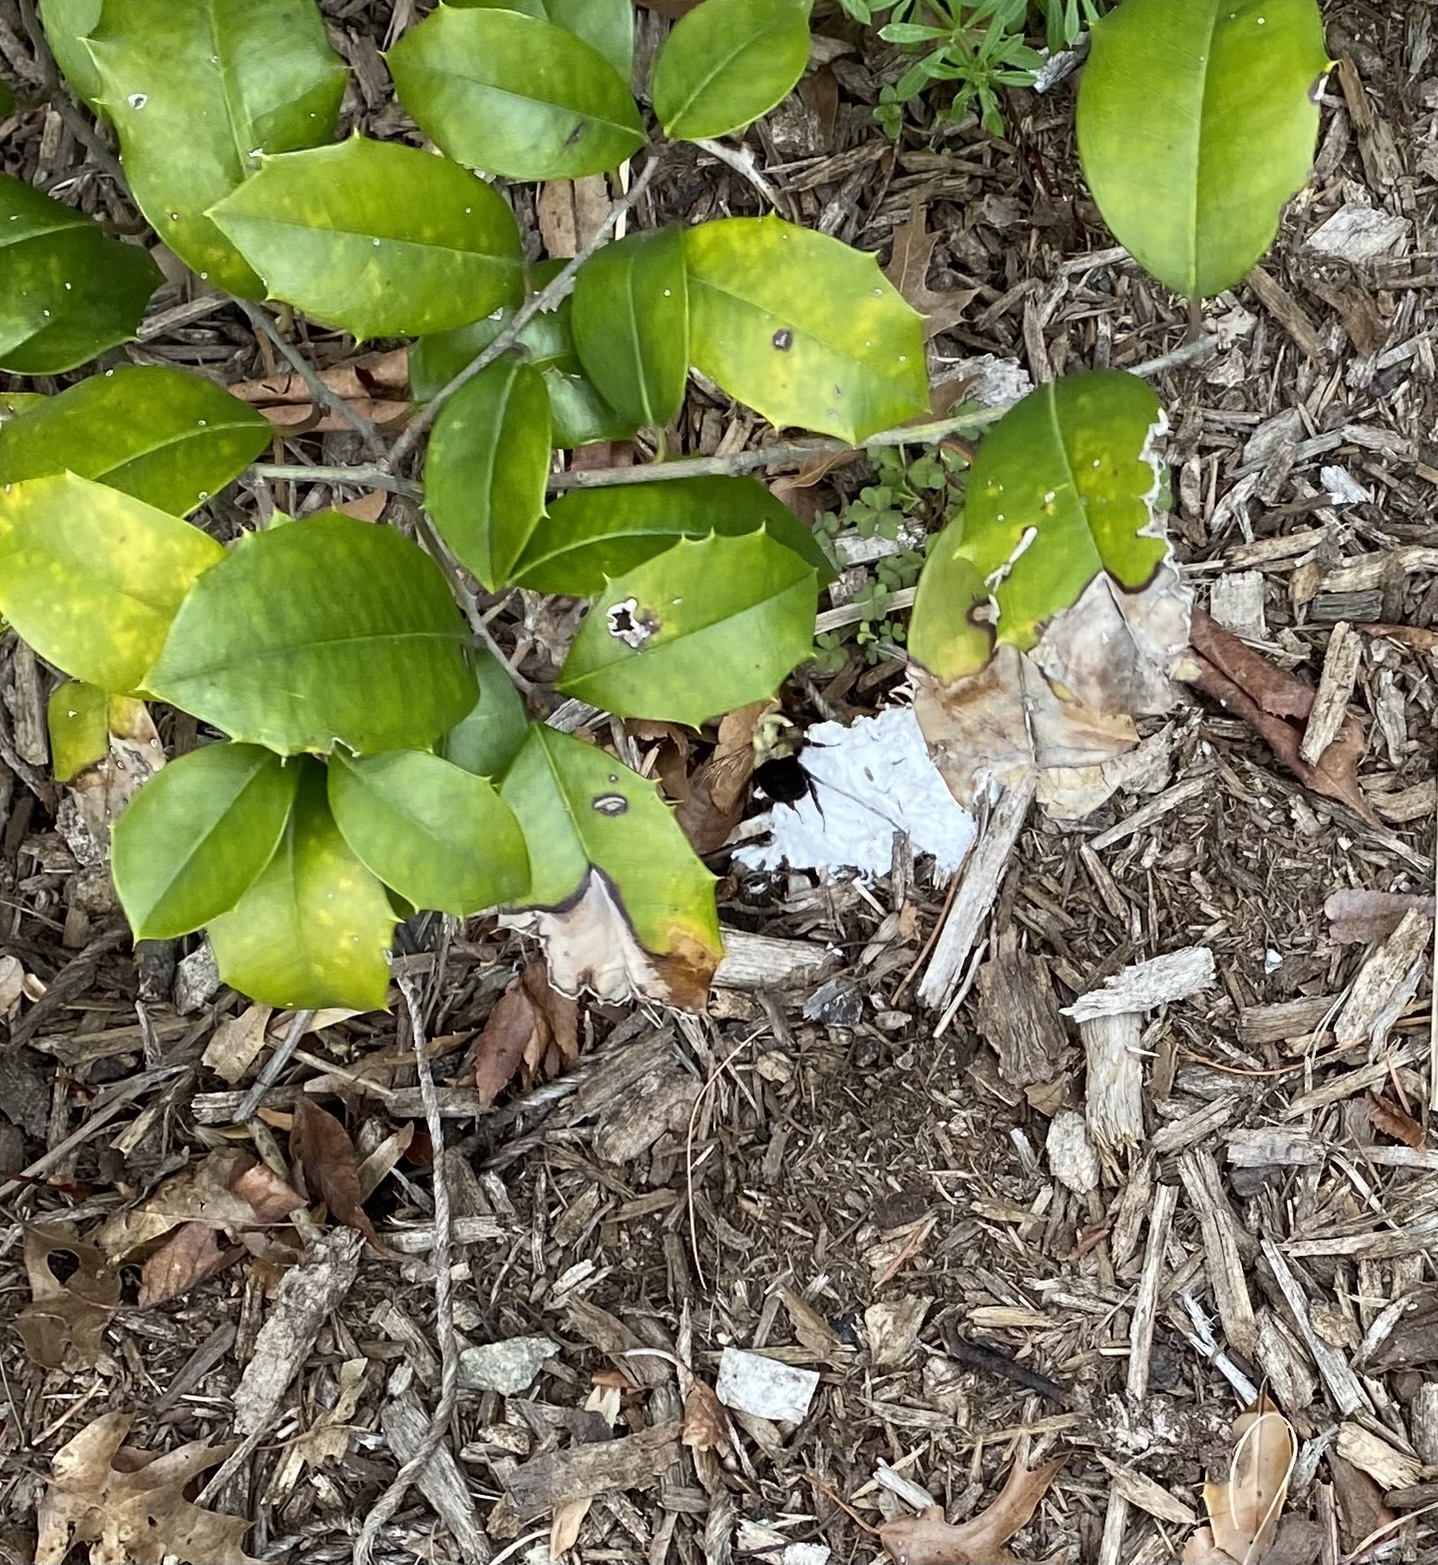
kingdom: Animalia
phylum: Arthropoda
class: Insecta
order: Hymenoptera
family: Apidae
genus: Bombus
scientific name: Bombus impatiens
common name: Common eastern bumble bee
